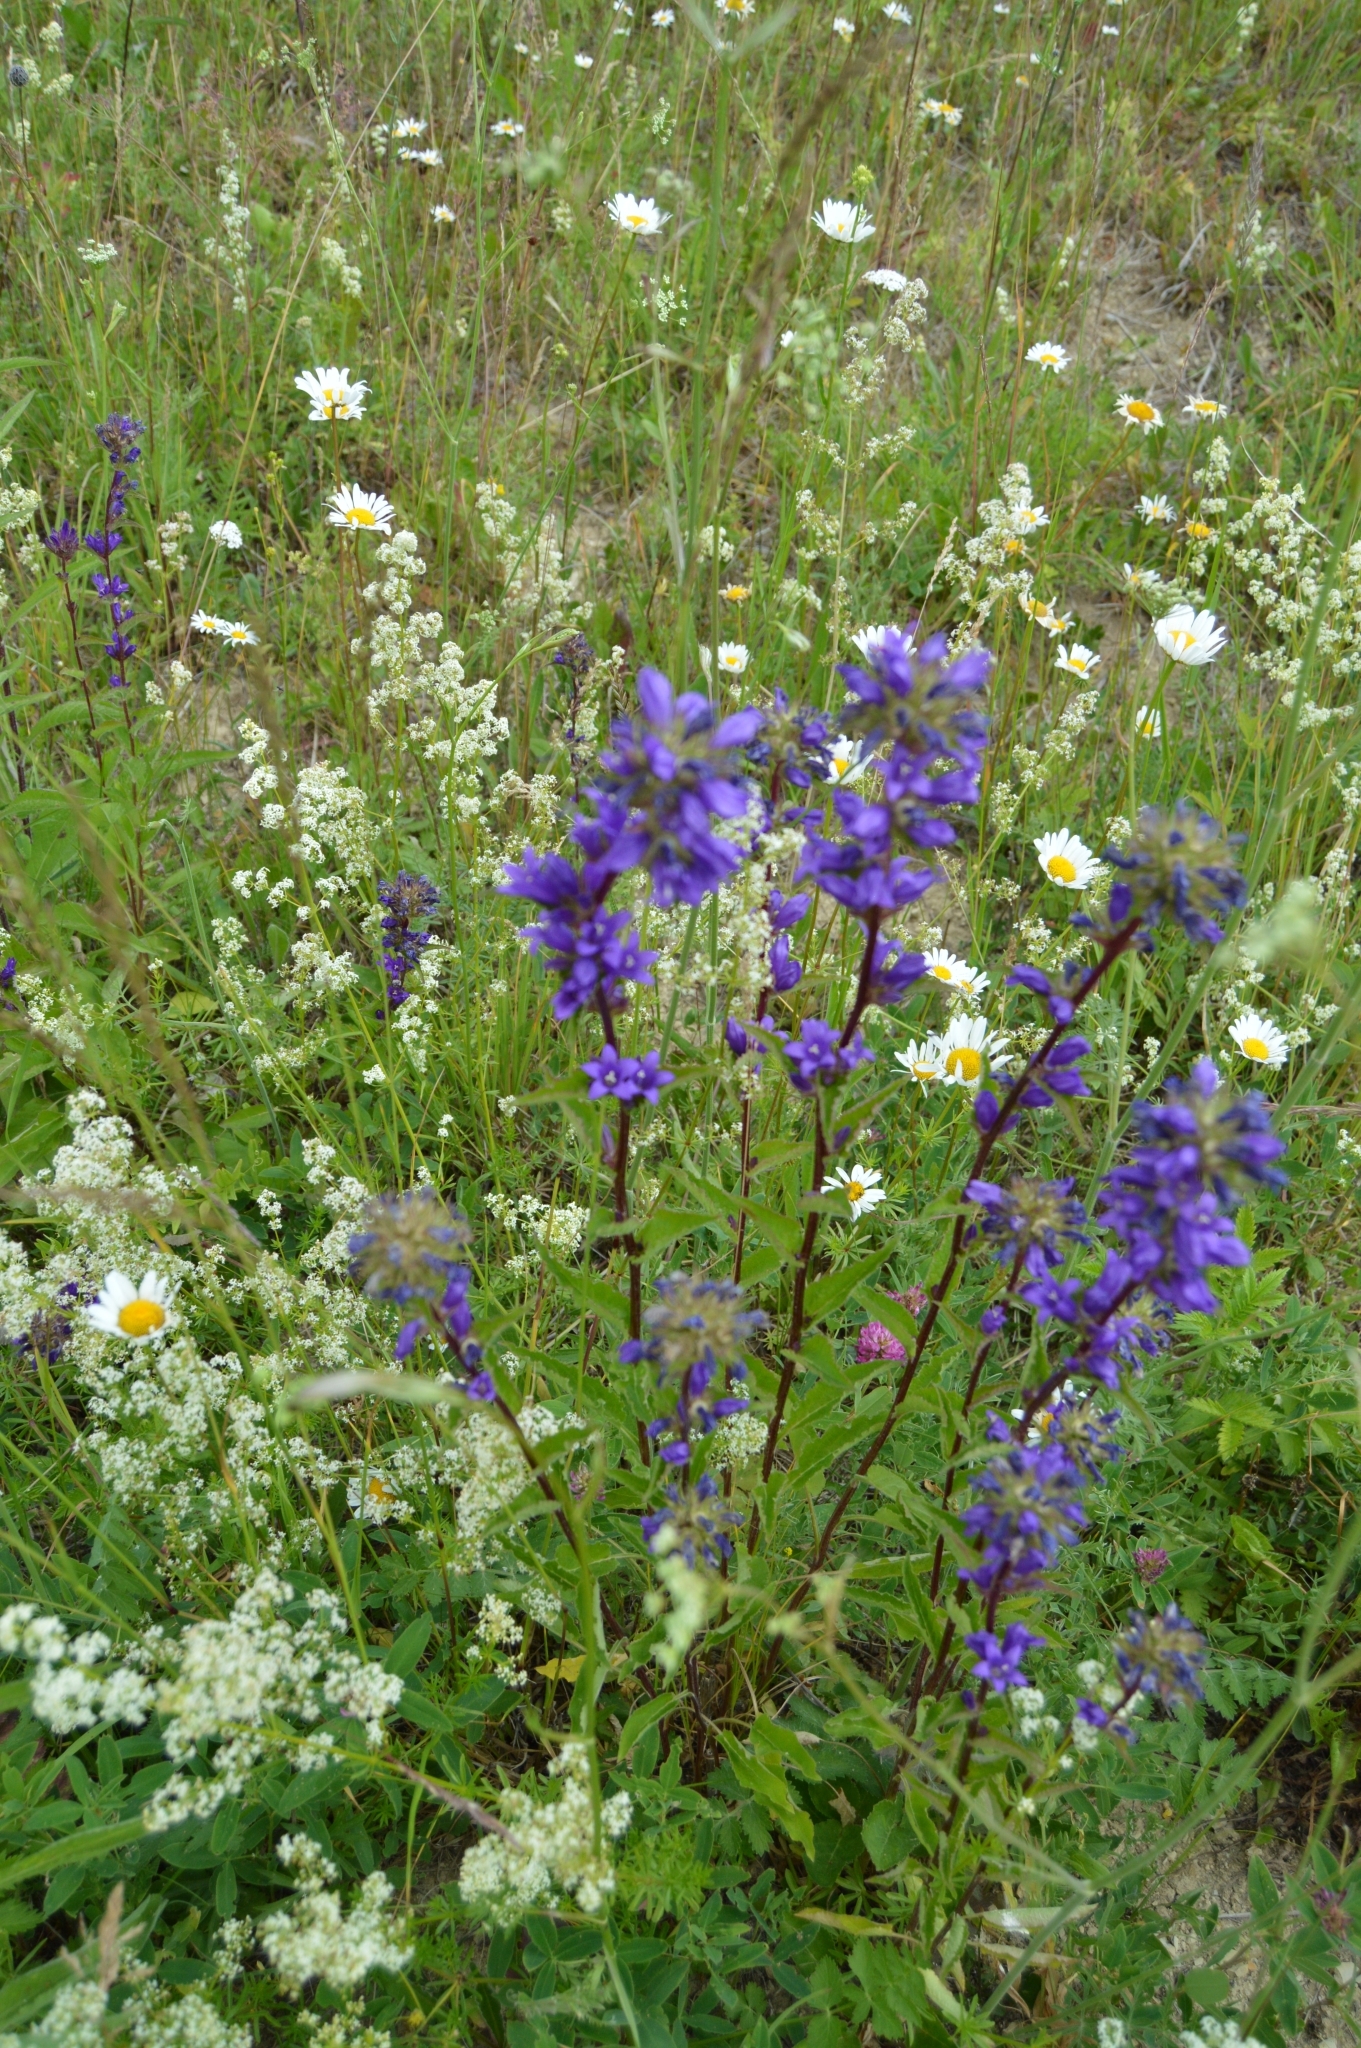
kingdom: Plantae
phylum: Tracheophyta
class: Magnoliopsida
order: Asterales
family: Campanulaceae
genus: Campanula
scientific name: Campanula glomerata
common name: Clustered bellflower
